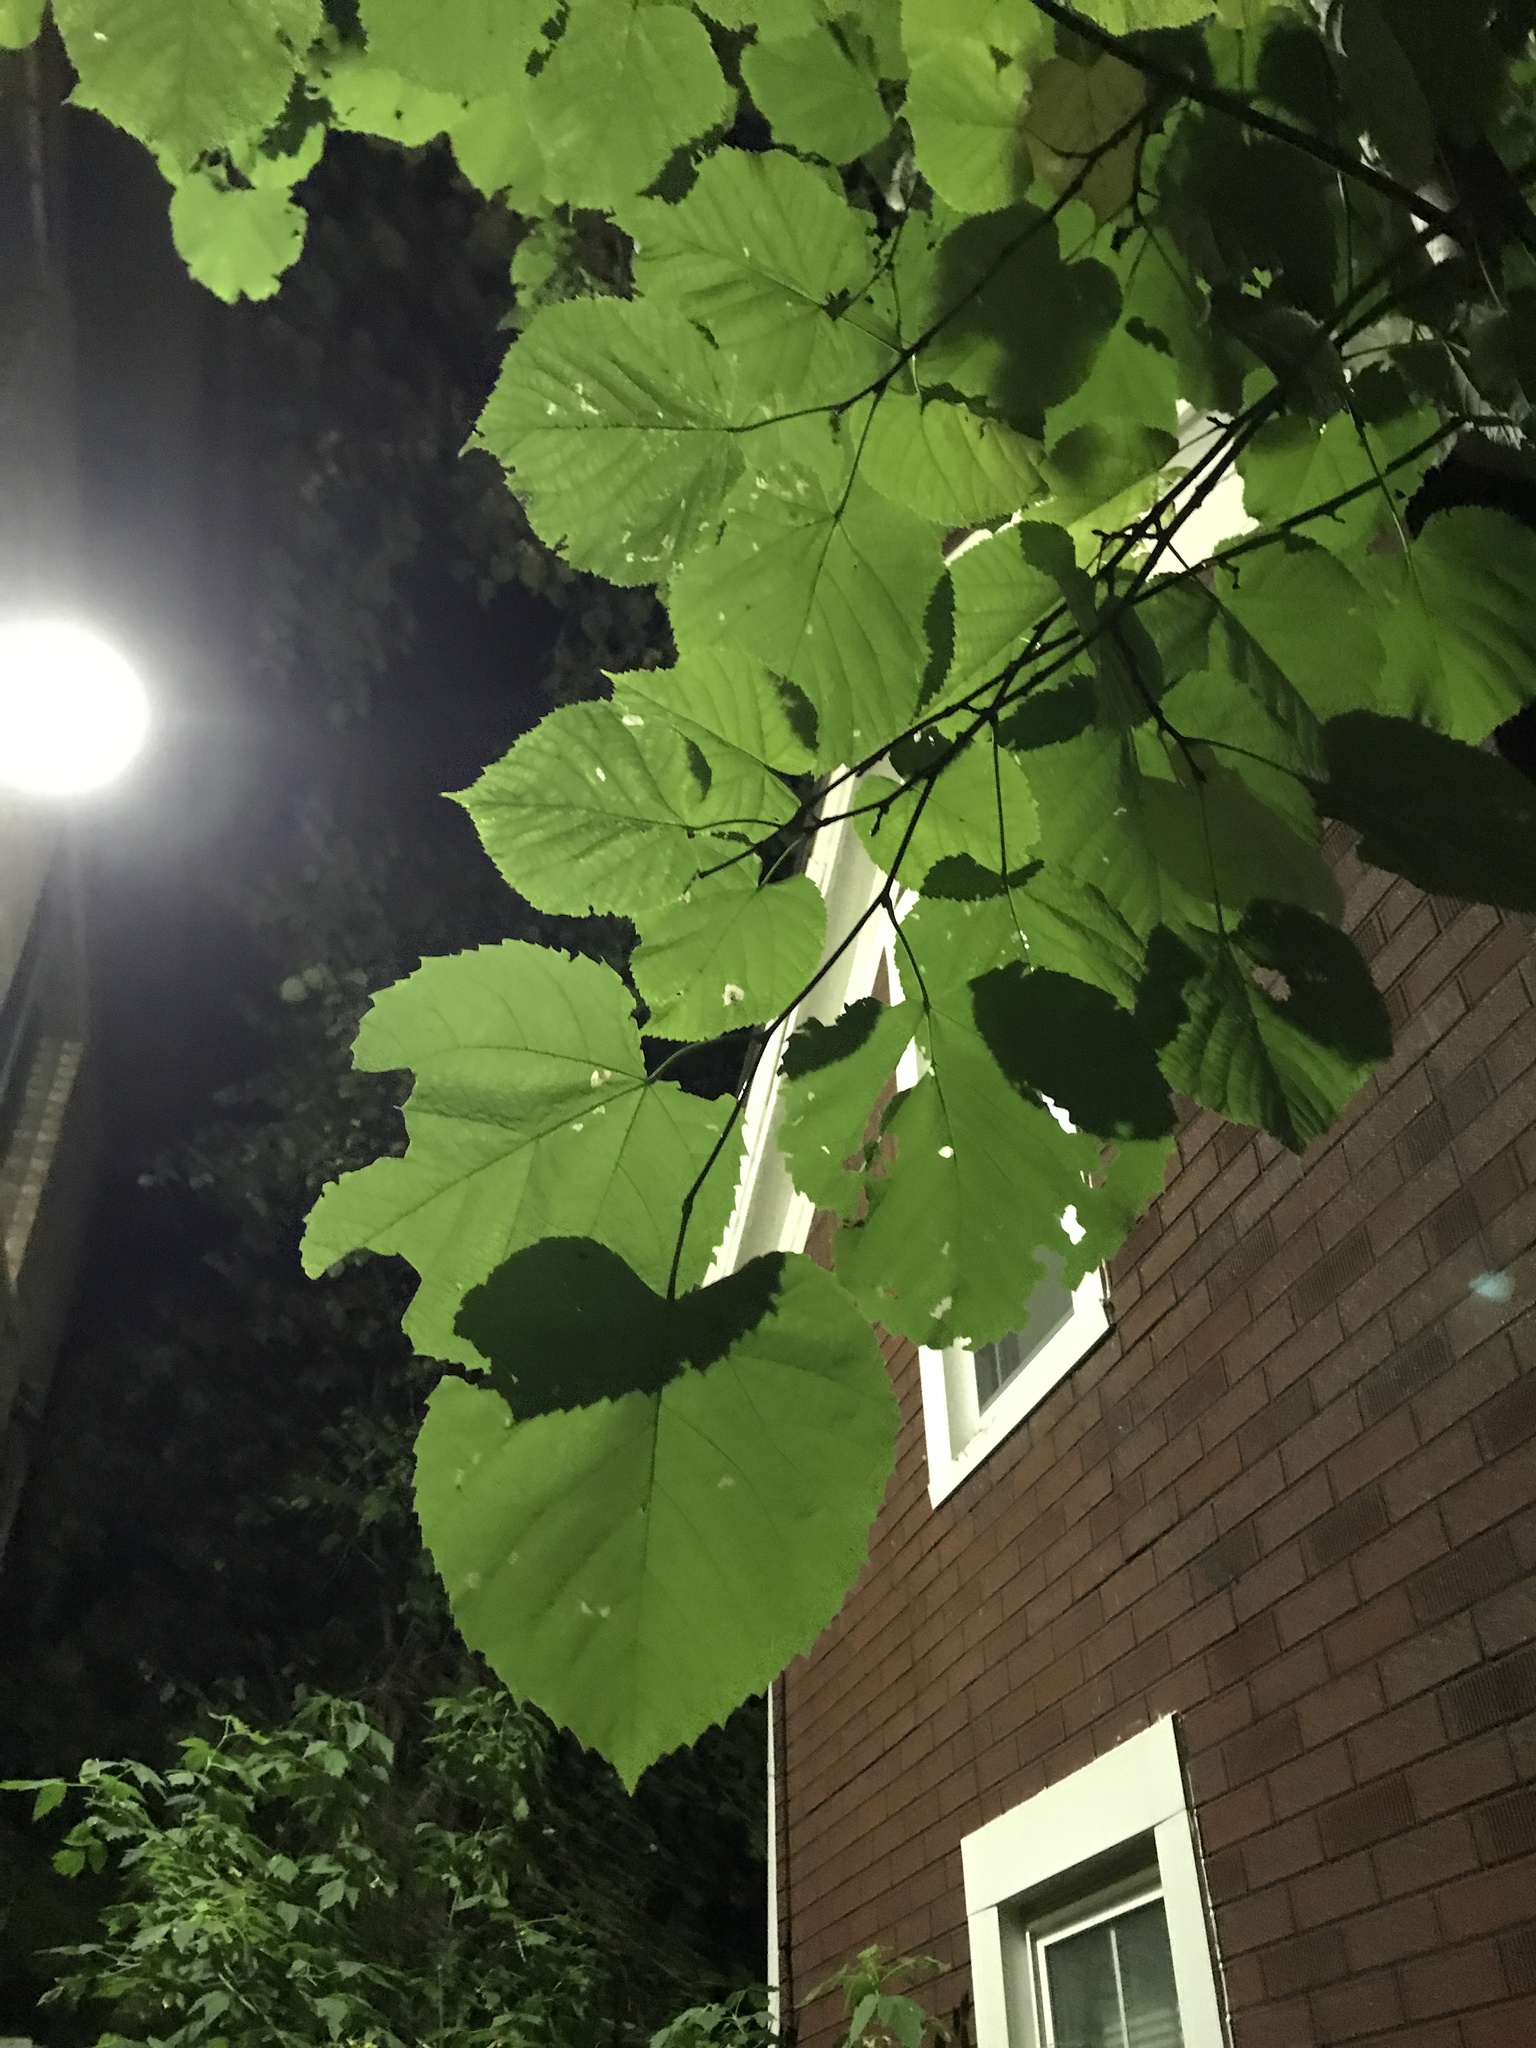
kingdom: Plantae
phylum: Tracheophyta
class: Magnoliopsida
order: Malvales
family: Malvaceae
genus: Tilia
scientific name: Tilia americana
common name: Basswood
